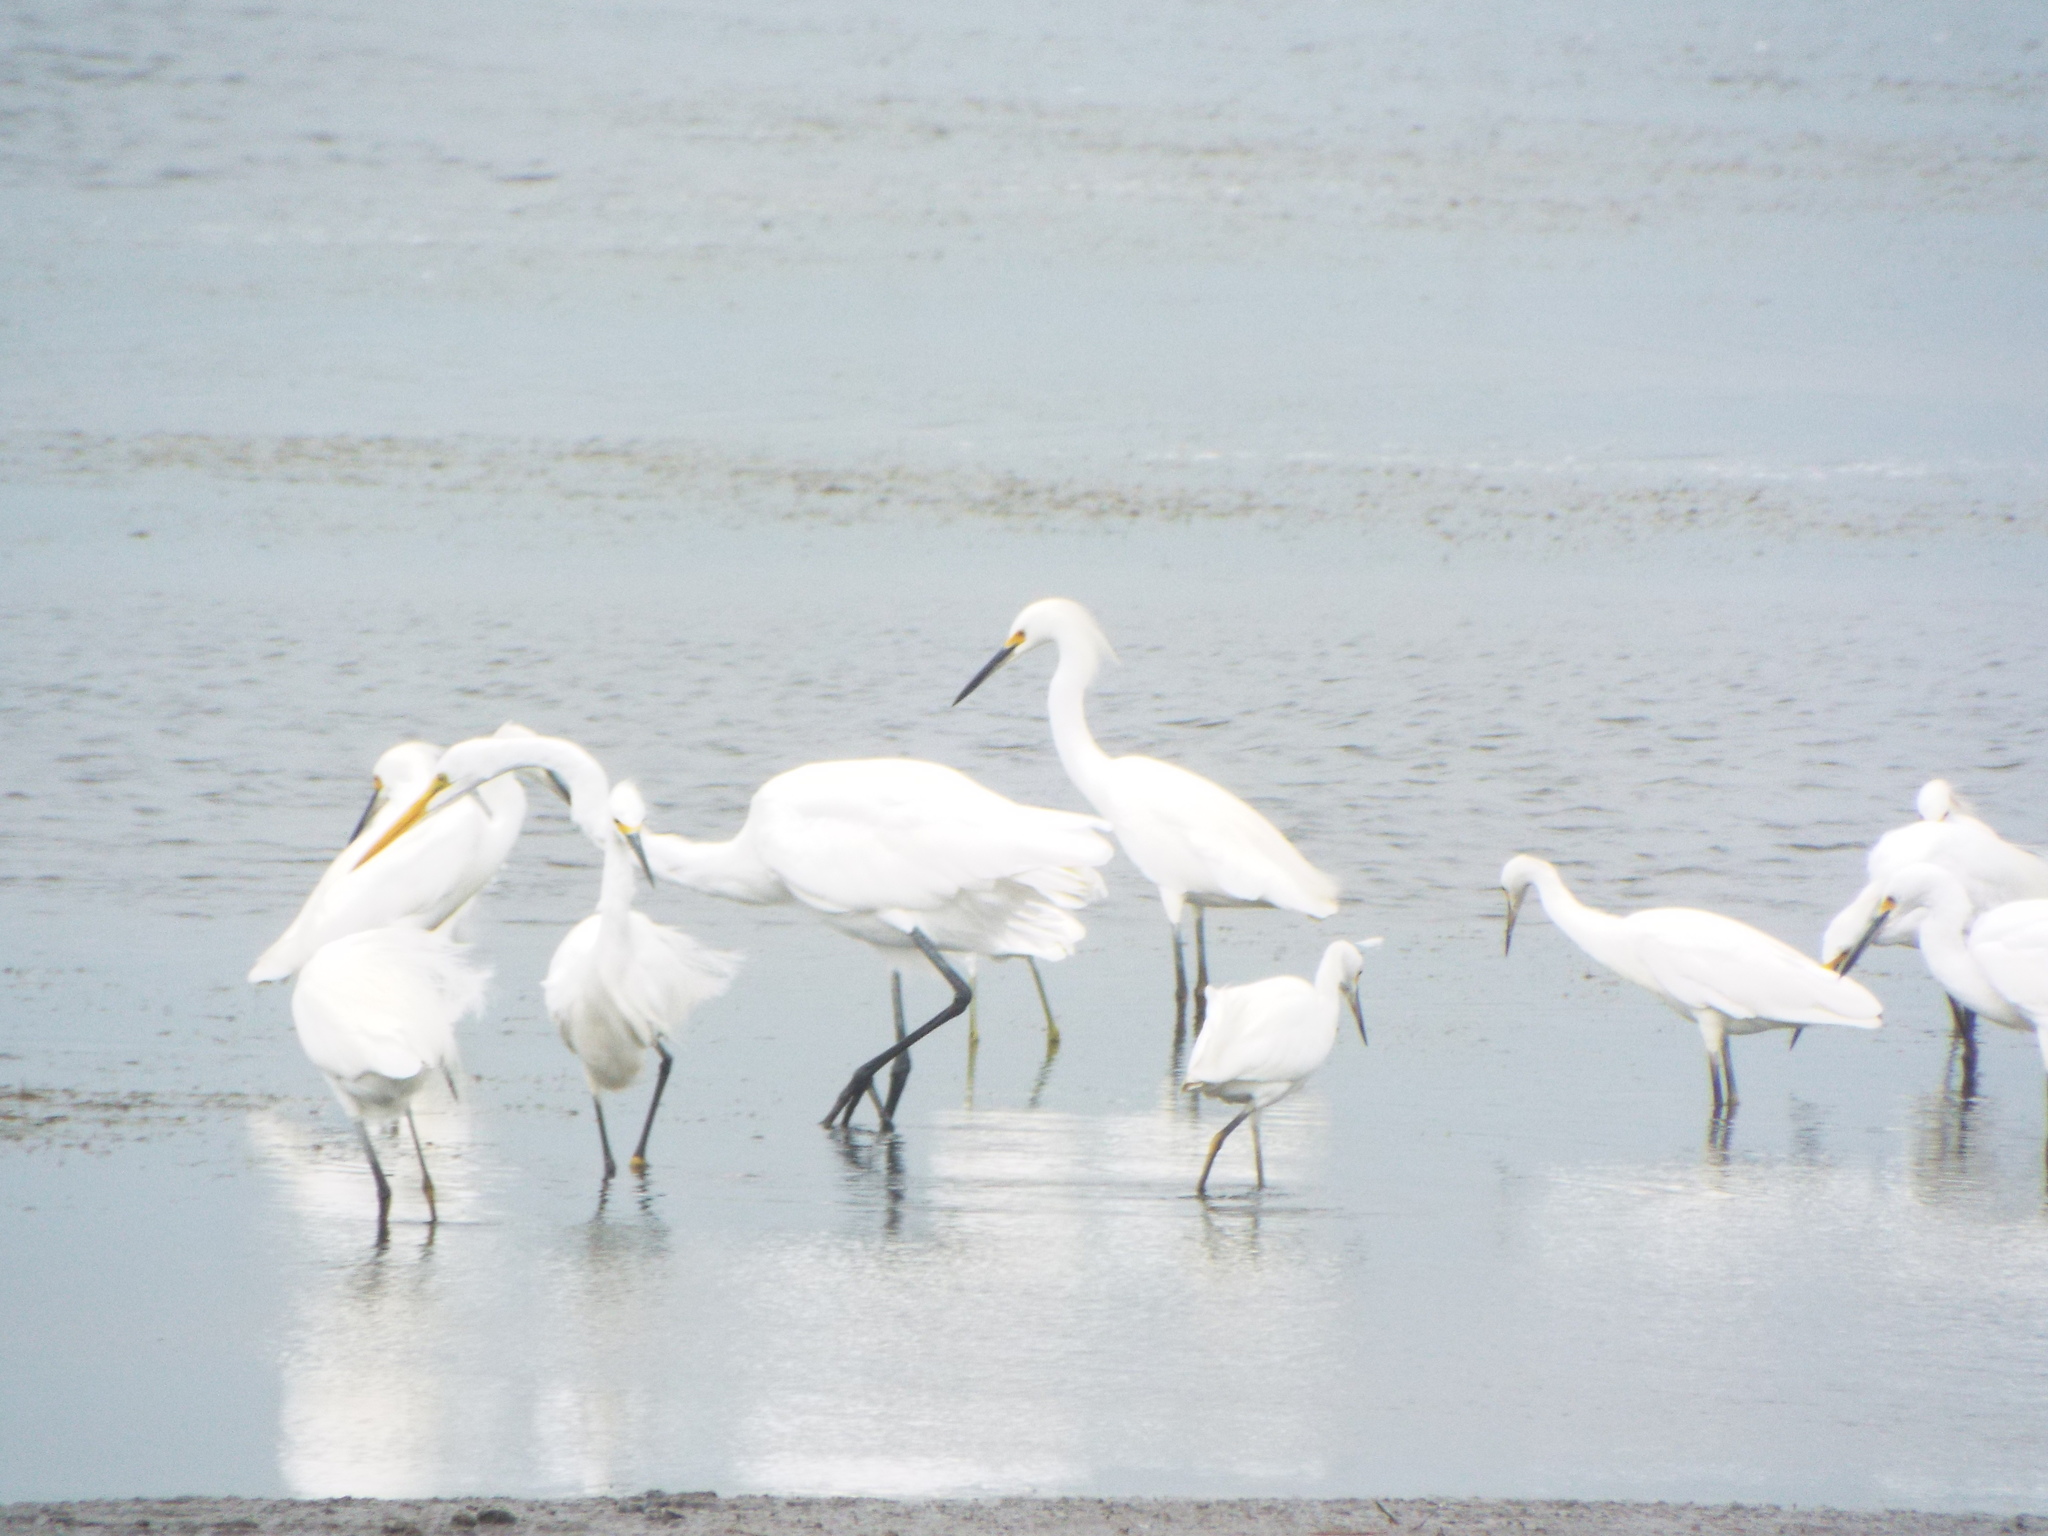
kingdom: Animalia
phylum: Chordata
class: Aves
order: Pelecaniformes
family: Ardeidae
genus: Ardea
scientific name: Ardea alba
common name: Great egret
